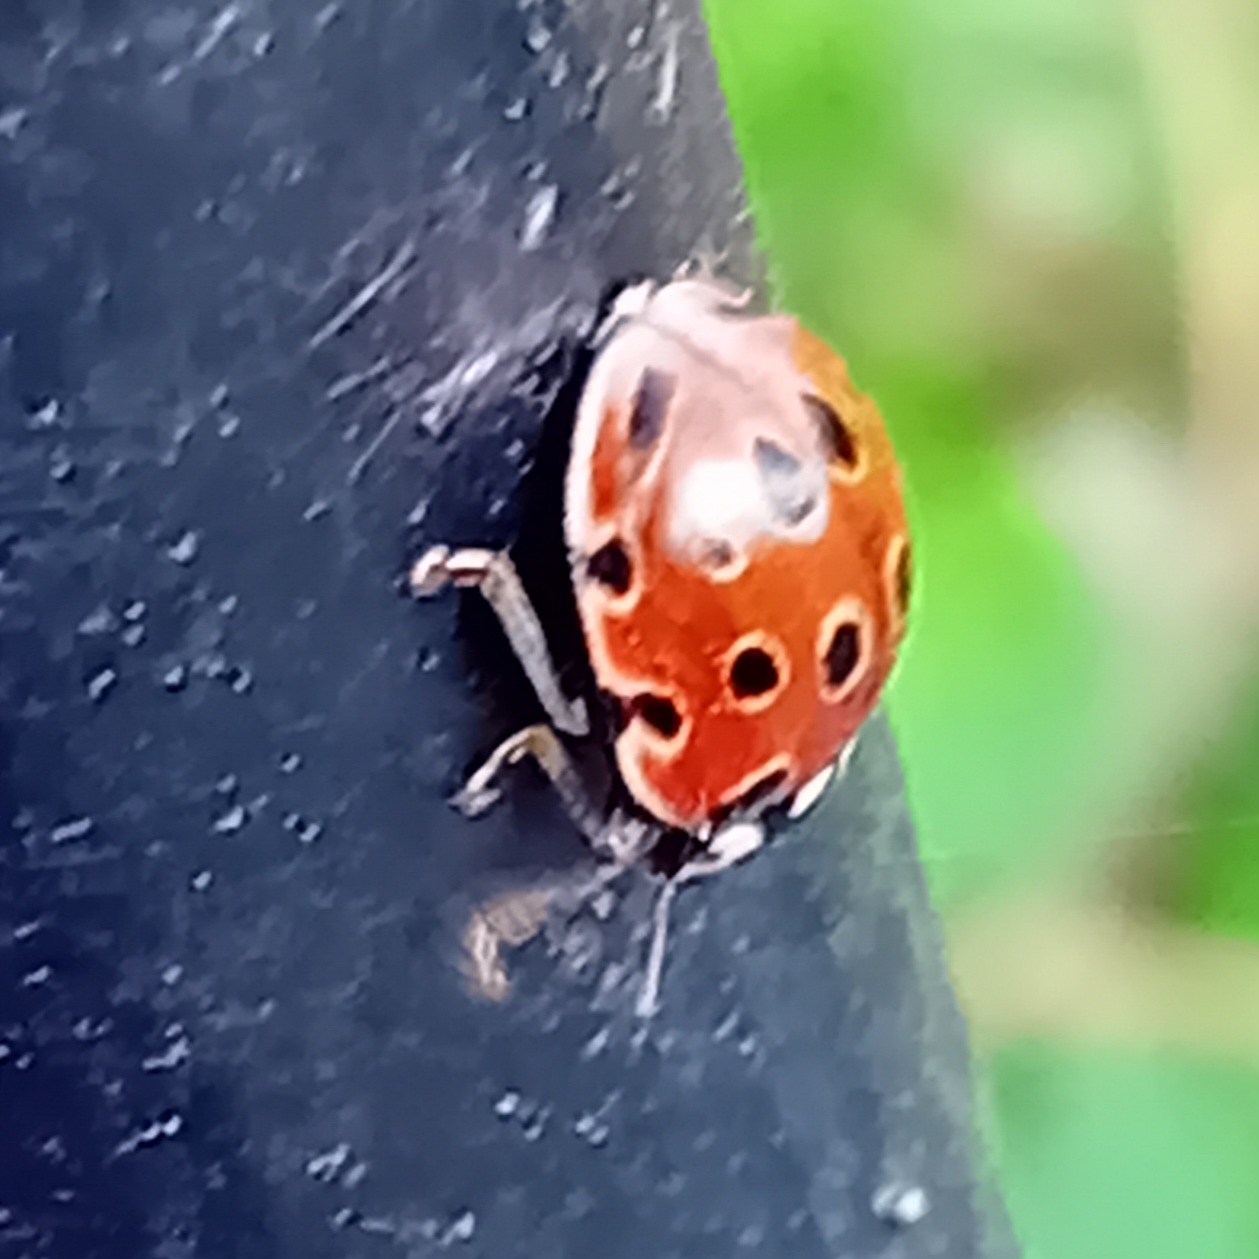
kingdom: Animalia
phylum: Arthropoda
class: Insecta
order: Coleoptera
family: Coccinellidae
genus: Anatis
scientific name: Anatis ocellata
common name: Eyed ladybird
